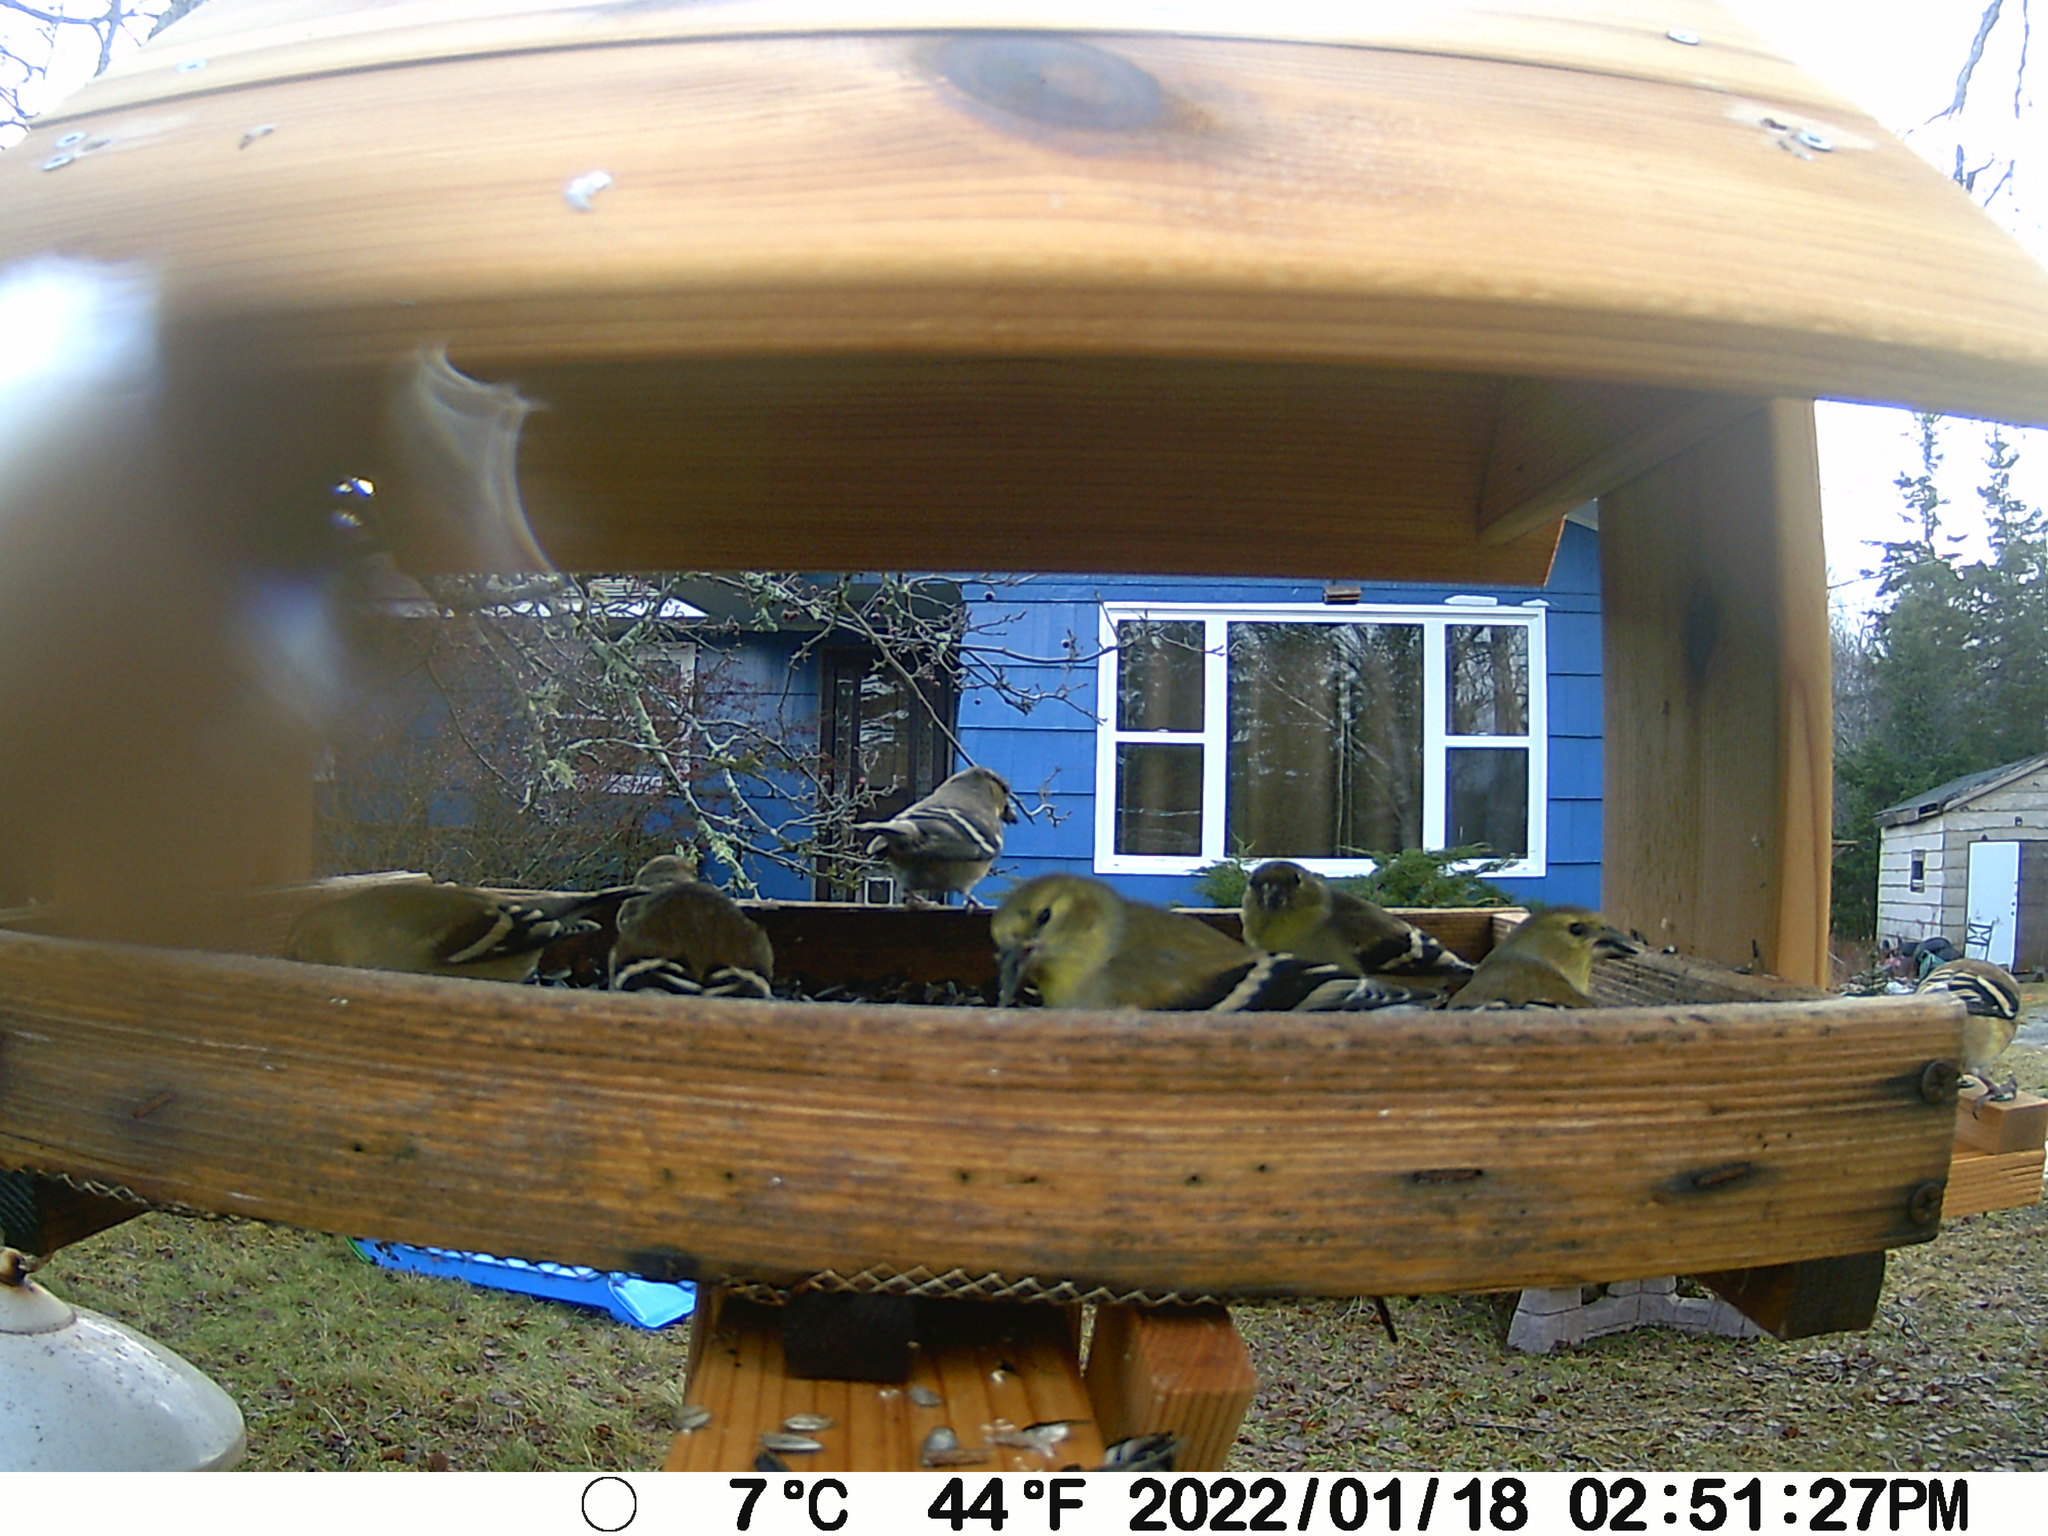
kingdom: Animalia
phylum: Chordata
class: Aves
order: Passeriformes
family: Fringillidae
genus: Spinus
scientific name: Spinus tristis
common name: American goldfinch
